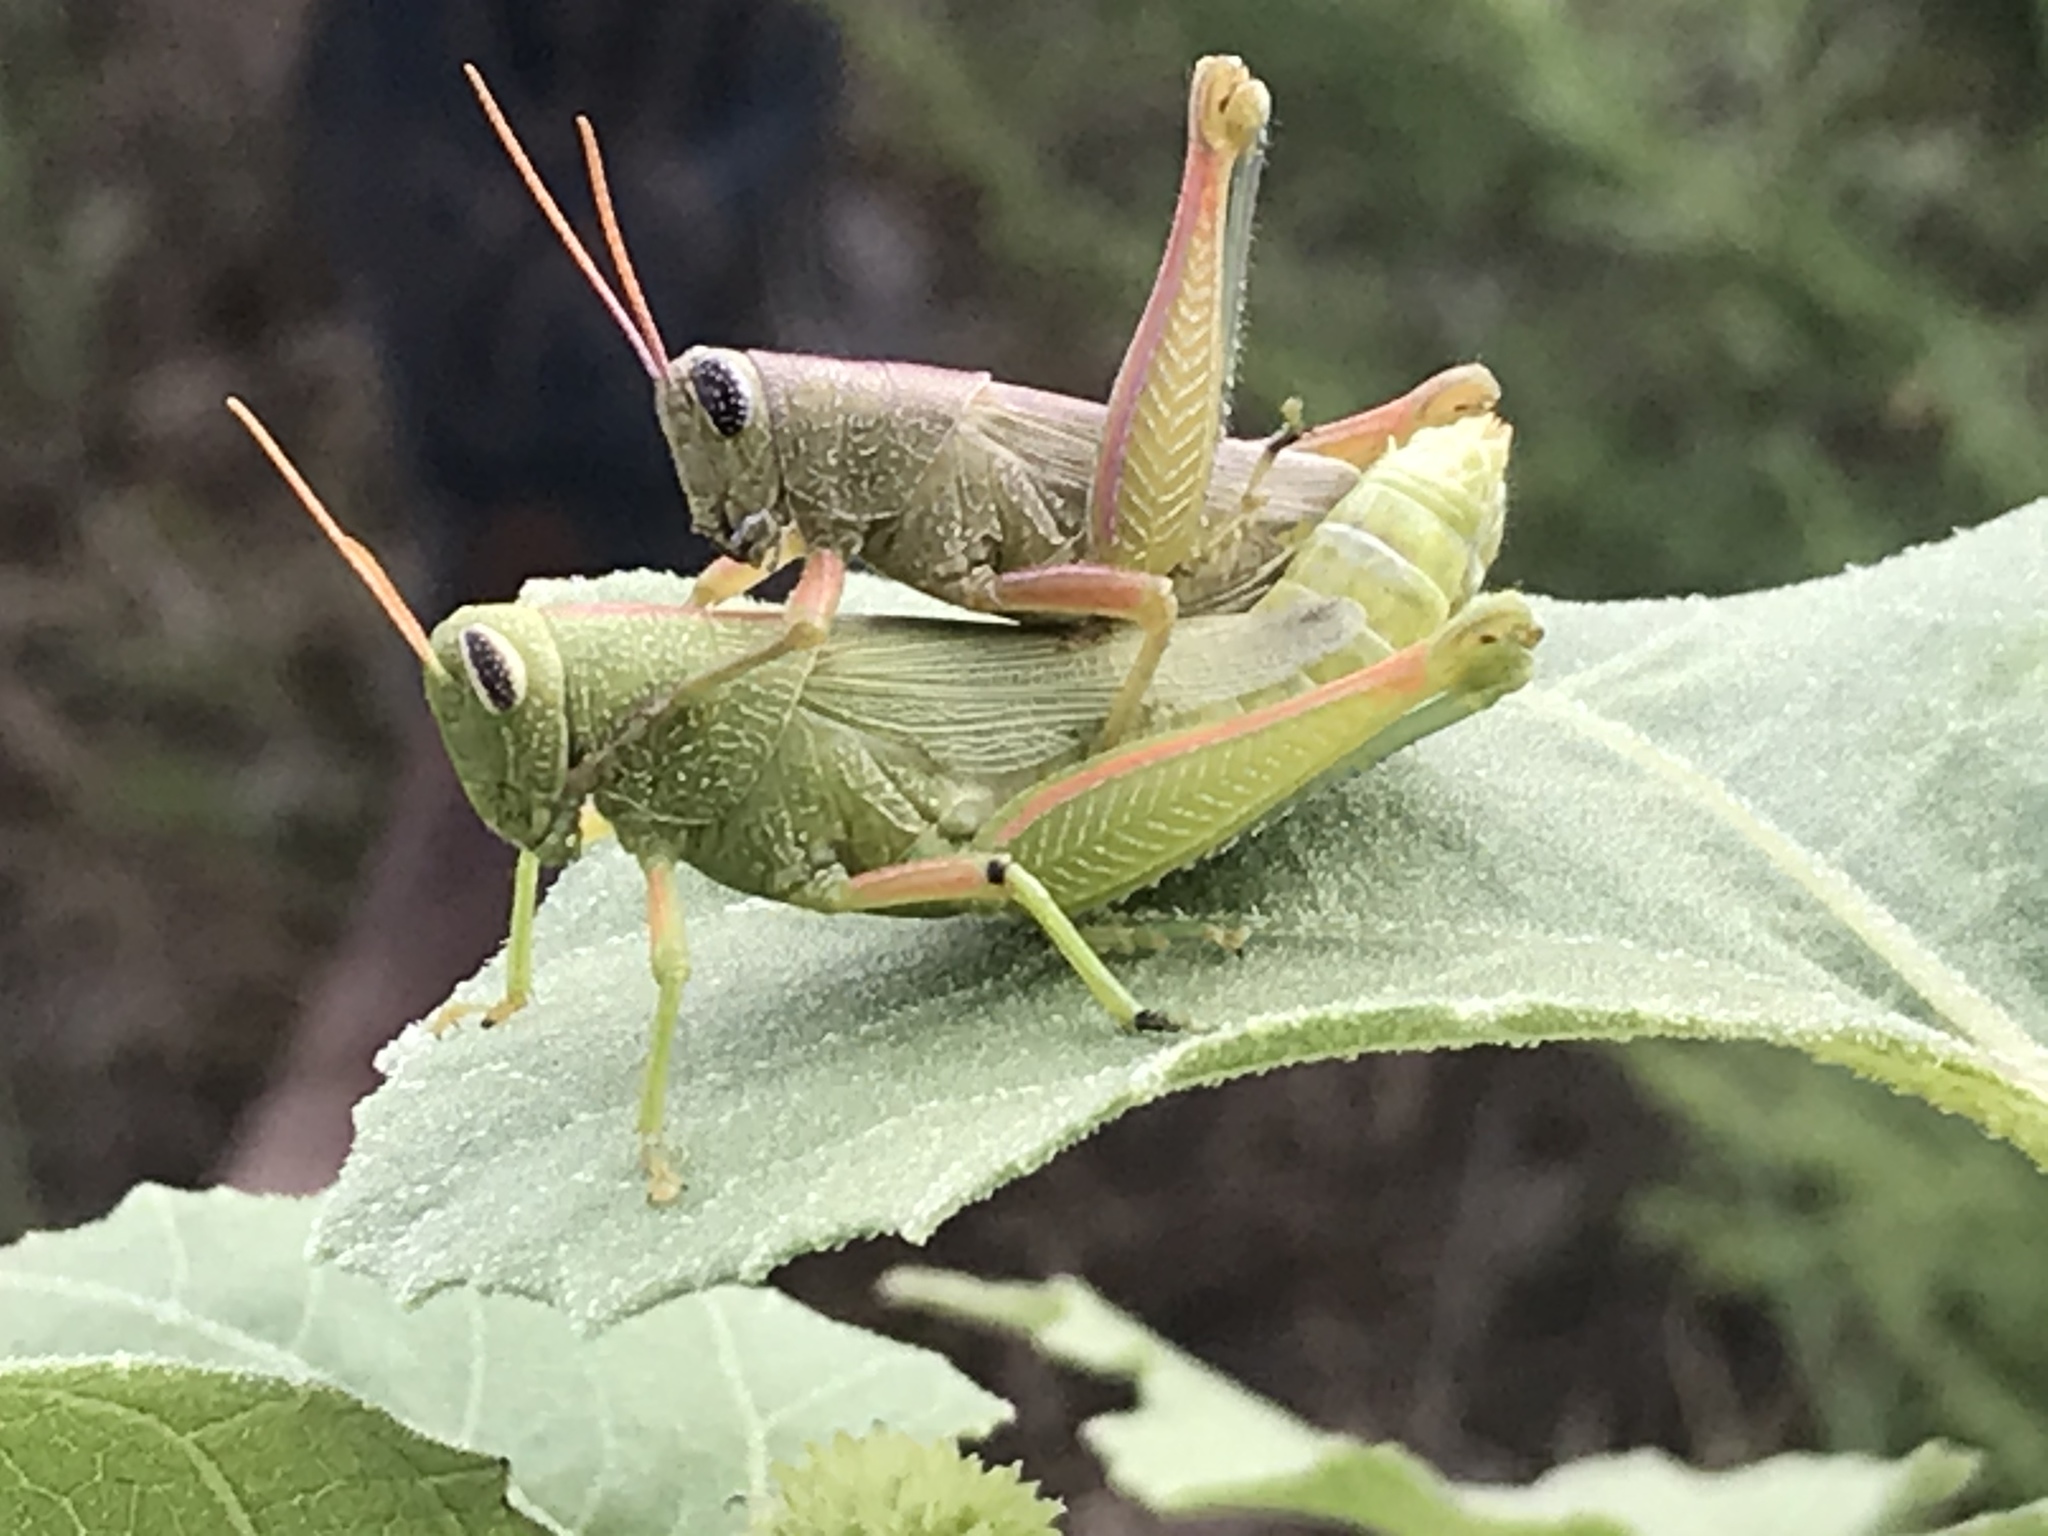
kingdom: Animalia
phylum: Arthropoda
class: Insecta
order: Orthoptera
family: Acrididae
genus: Hesperotettix
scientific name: Hesperotettix speciosus
